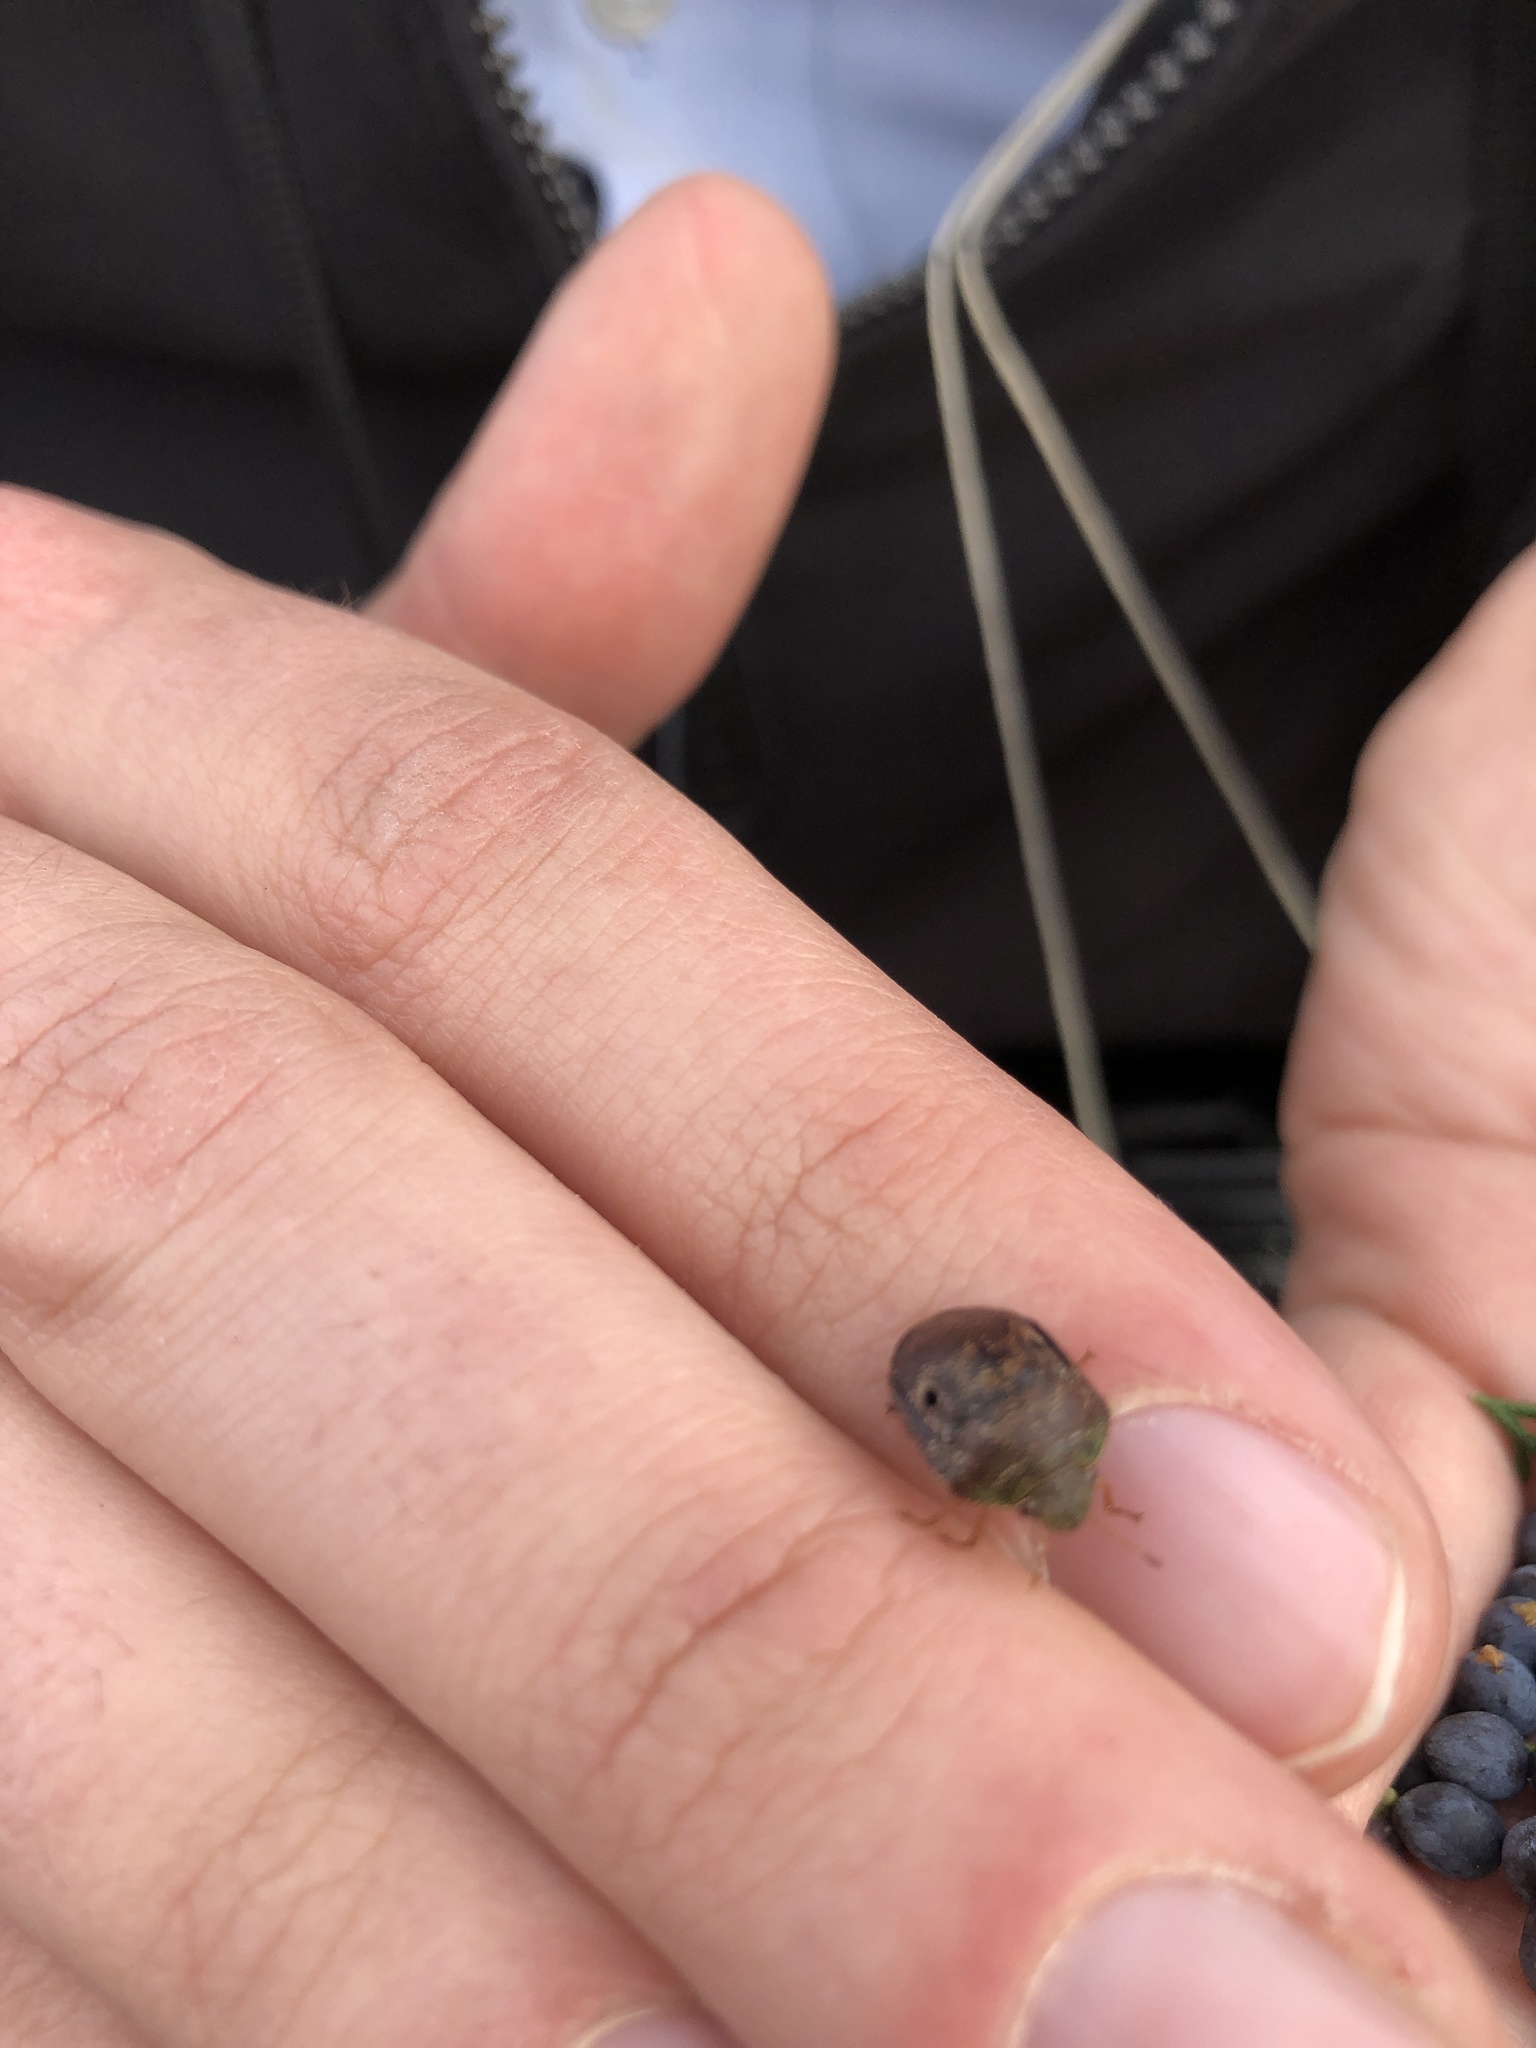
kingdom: Animalia
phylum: Arthropoda
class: Insecta
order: Hemiptera
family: Scutelleridae
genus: Diolcus
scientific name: Diolcus chrysorrhoeus
